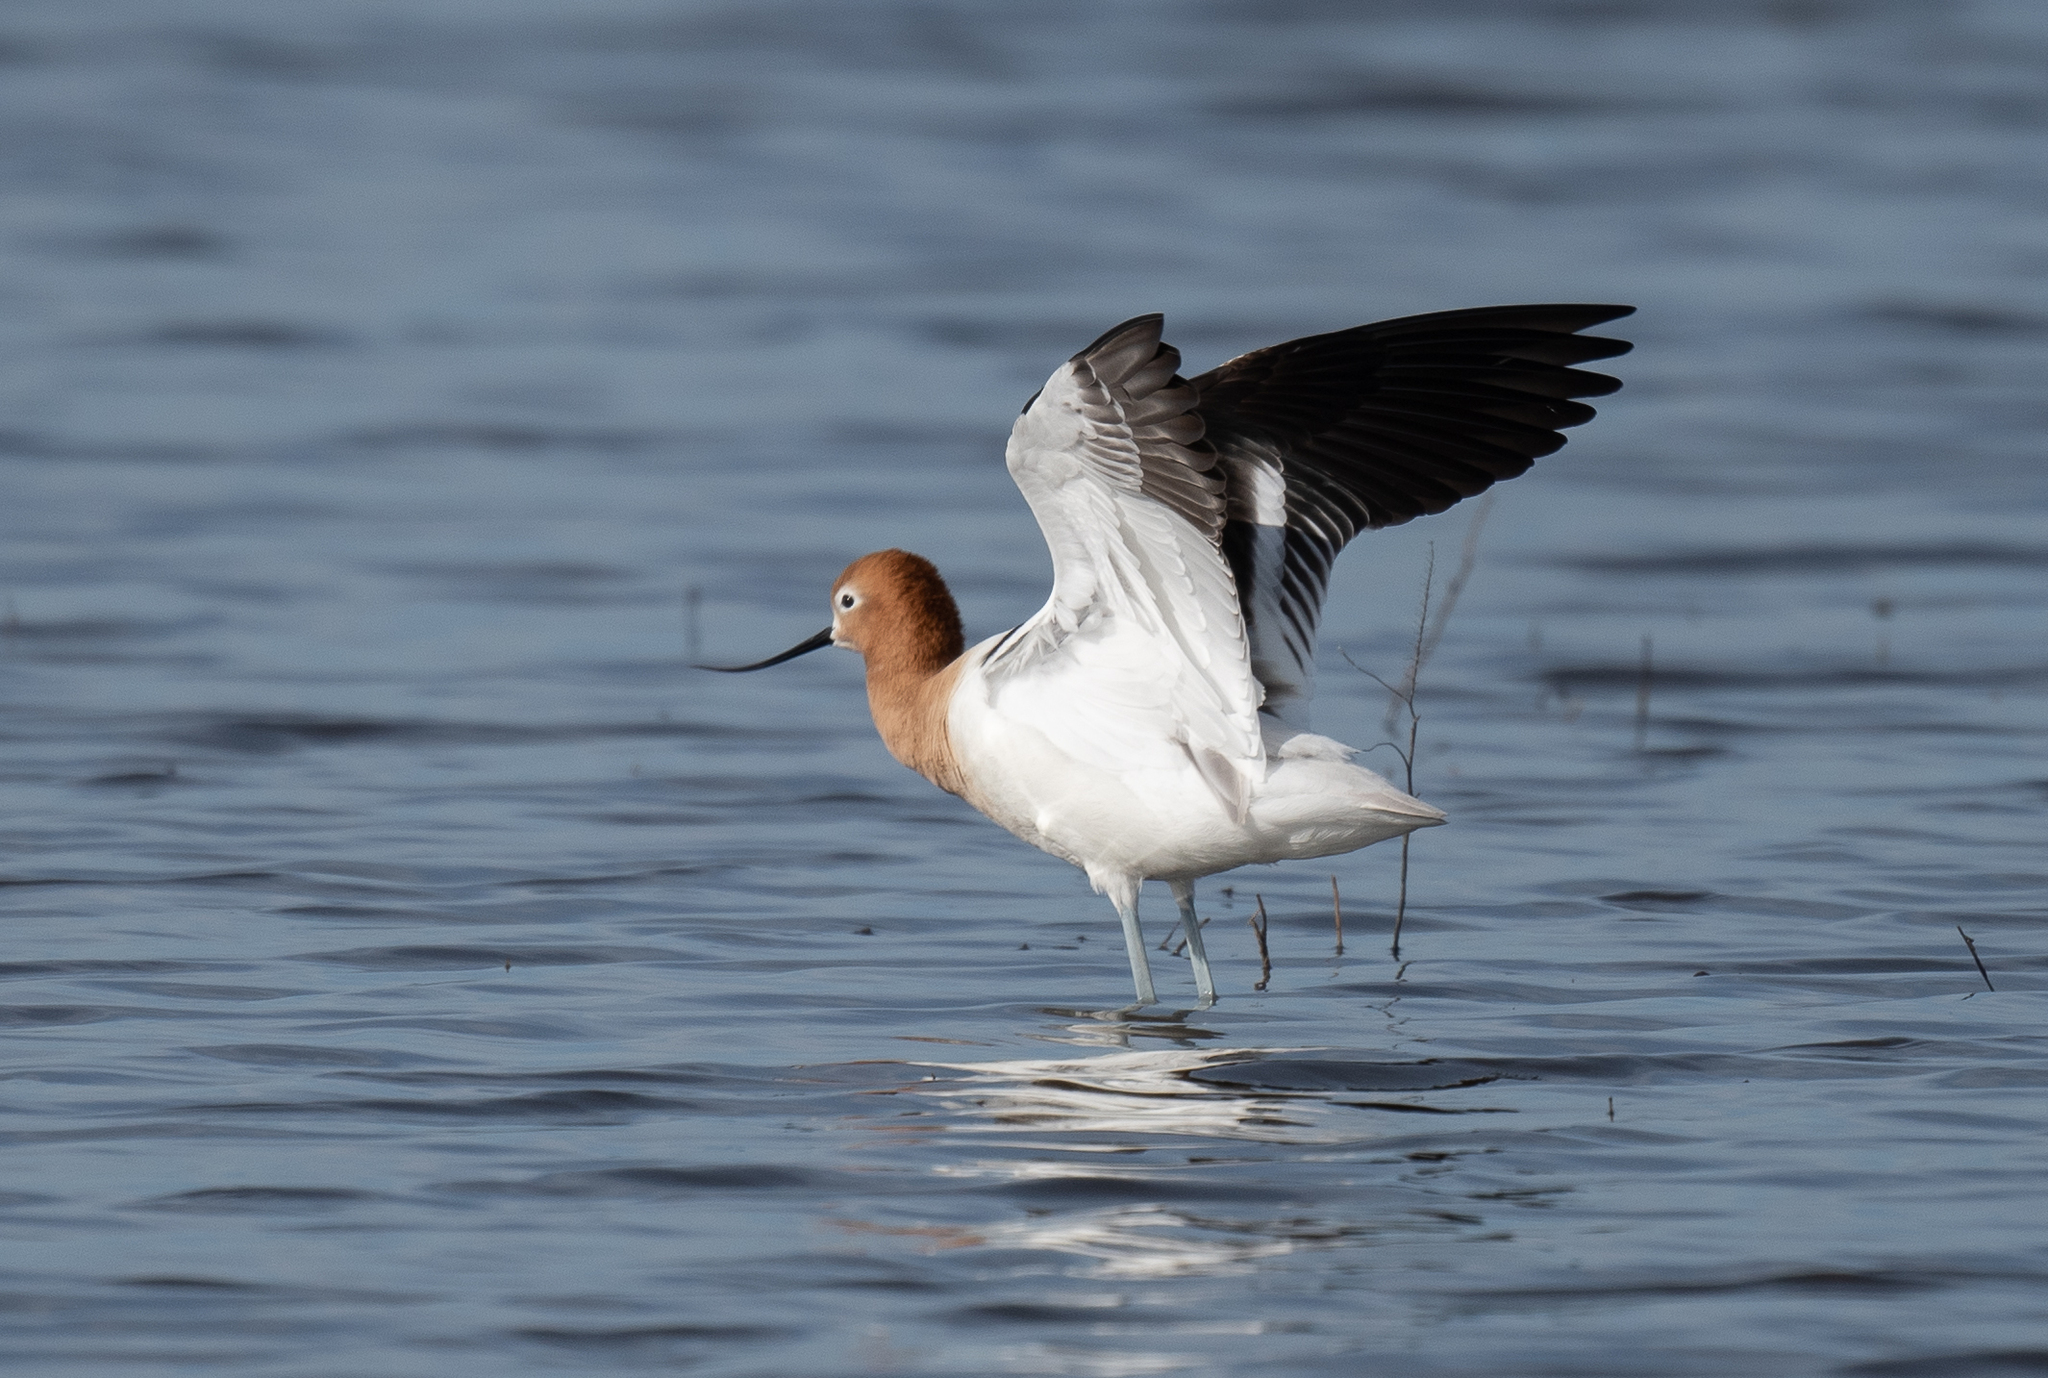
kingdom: Animalia
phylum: Chordata
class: Aves
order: Charadriiformes
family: Recurvirostridae
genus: Recurvirostra
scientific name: Recurvirostra americana
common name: American avocet
